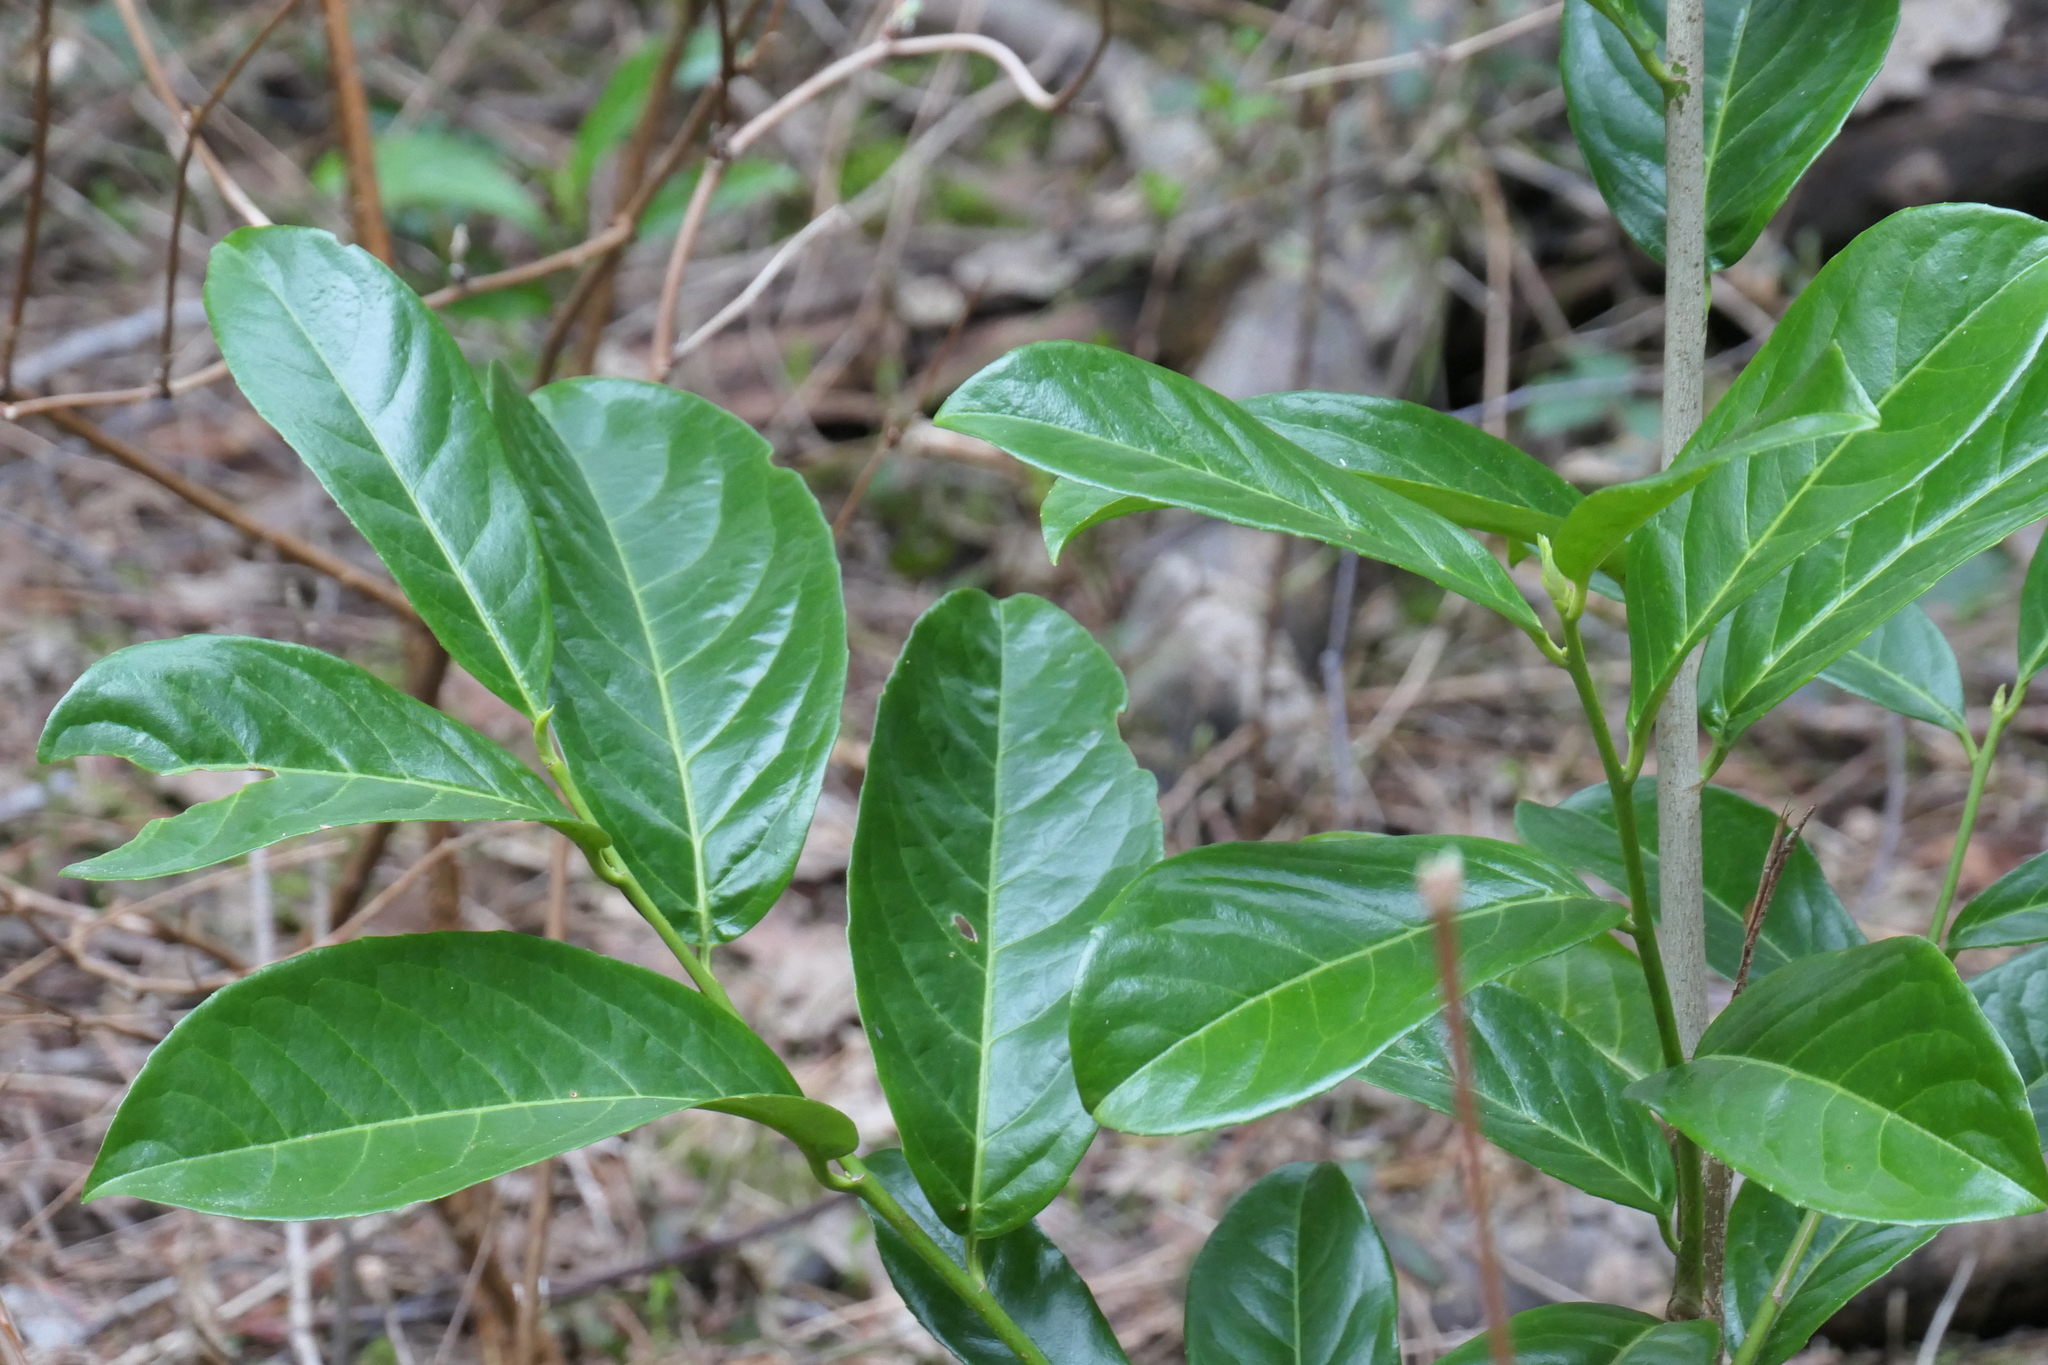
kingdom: Plantae
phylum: Tracheophyta
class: Magnoliopsida
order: Rosales
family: Rosaceae
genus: Prunus
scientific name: Prunus laurocerasus
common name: Cherry laurel
